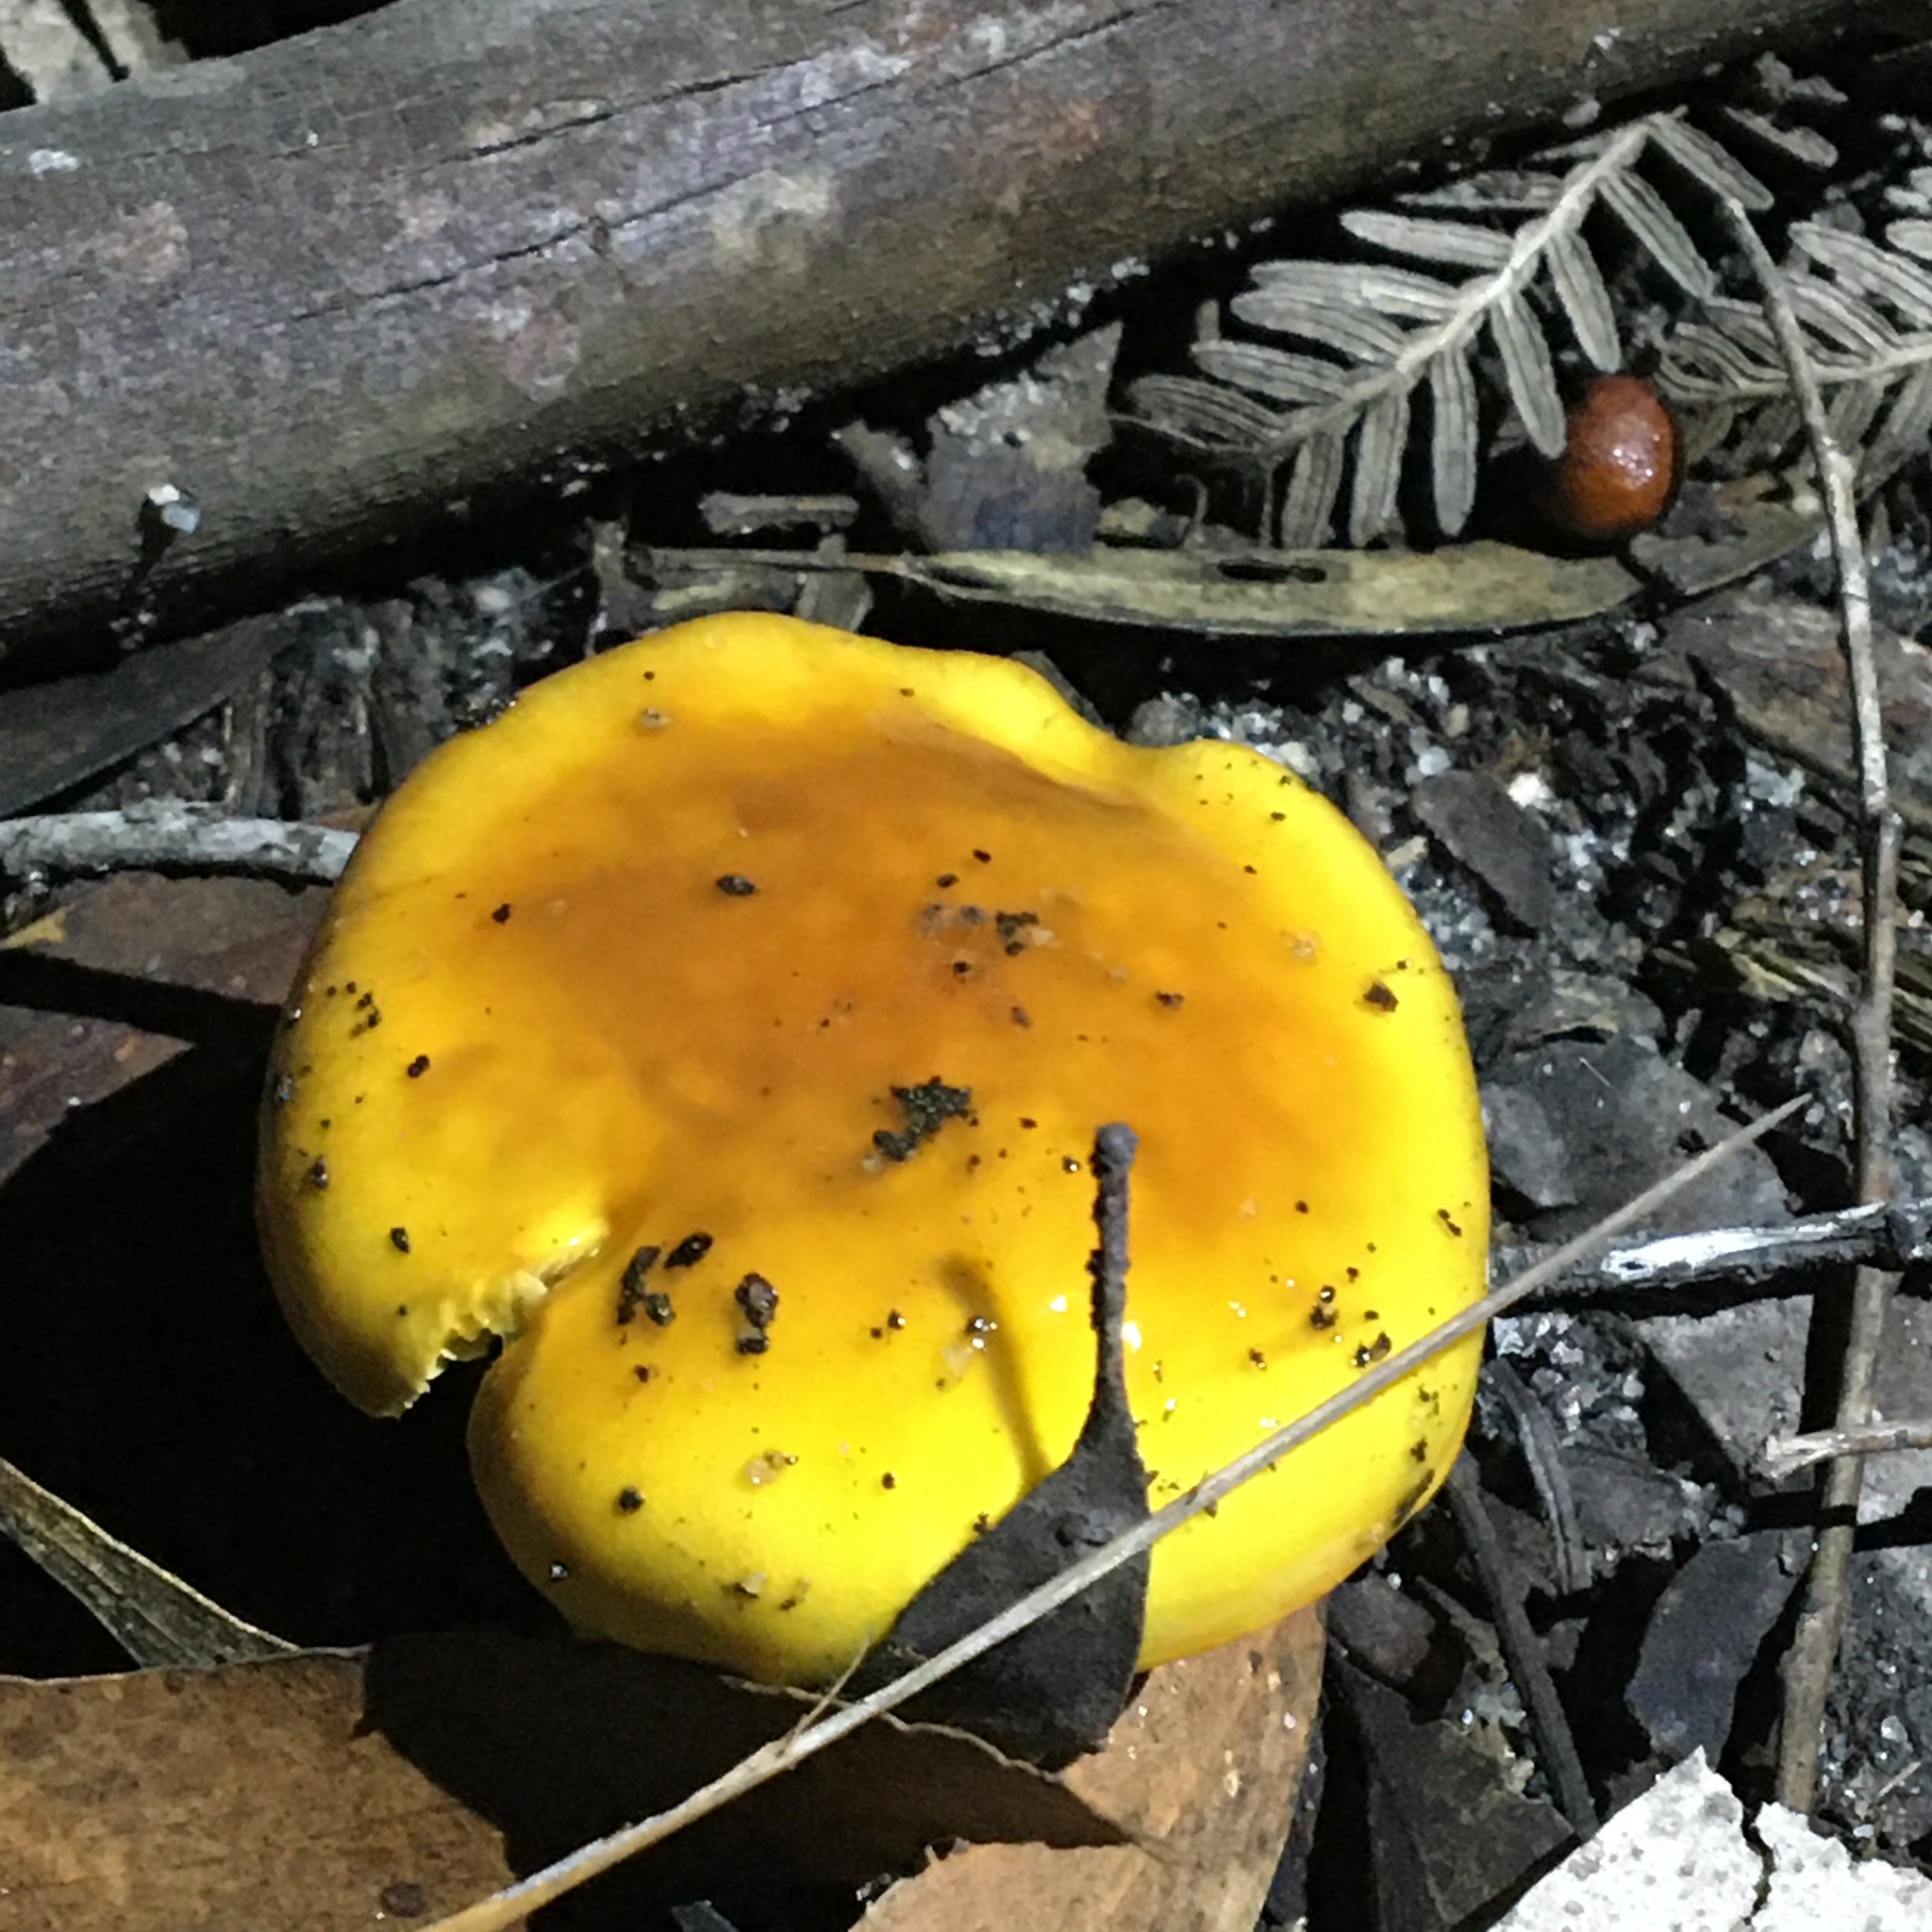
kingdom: Fungi
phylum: Basidiomycota
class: Agaricomycetes
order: Agaricales
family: Cortinariaceae
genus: Cortinarius
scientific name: Cortinarius sinapicolor
